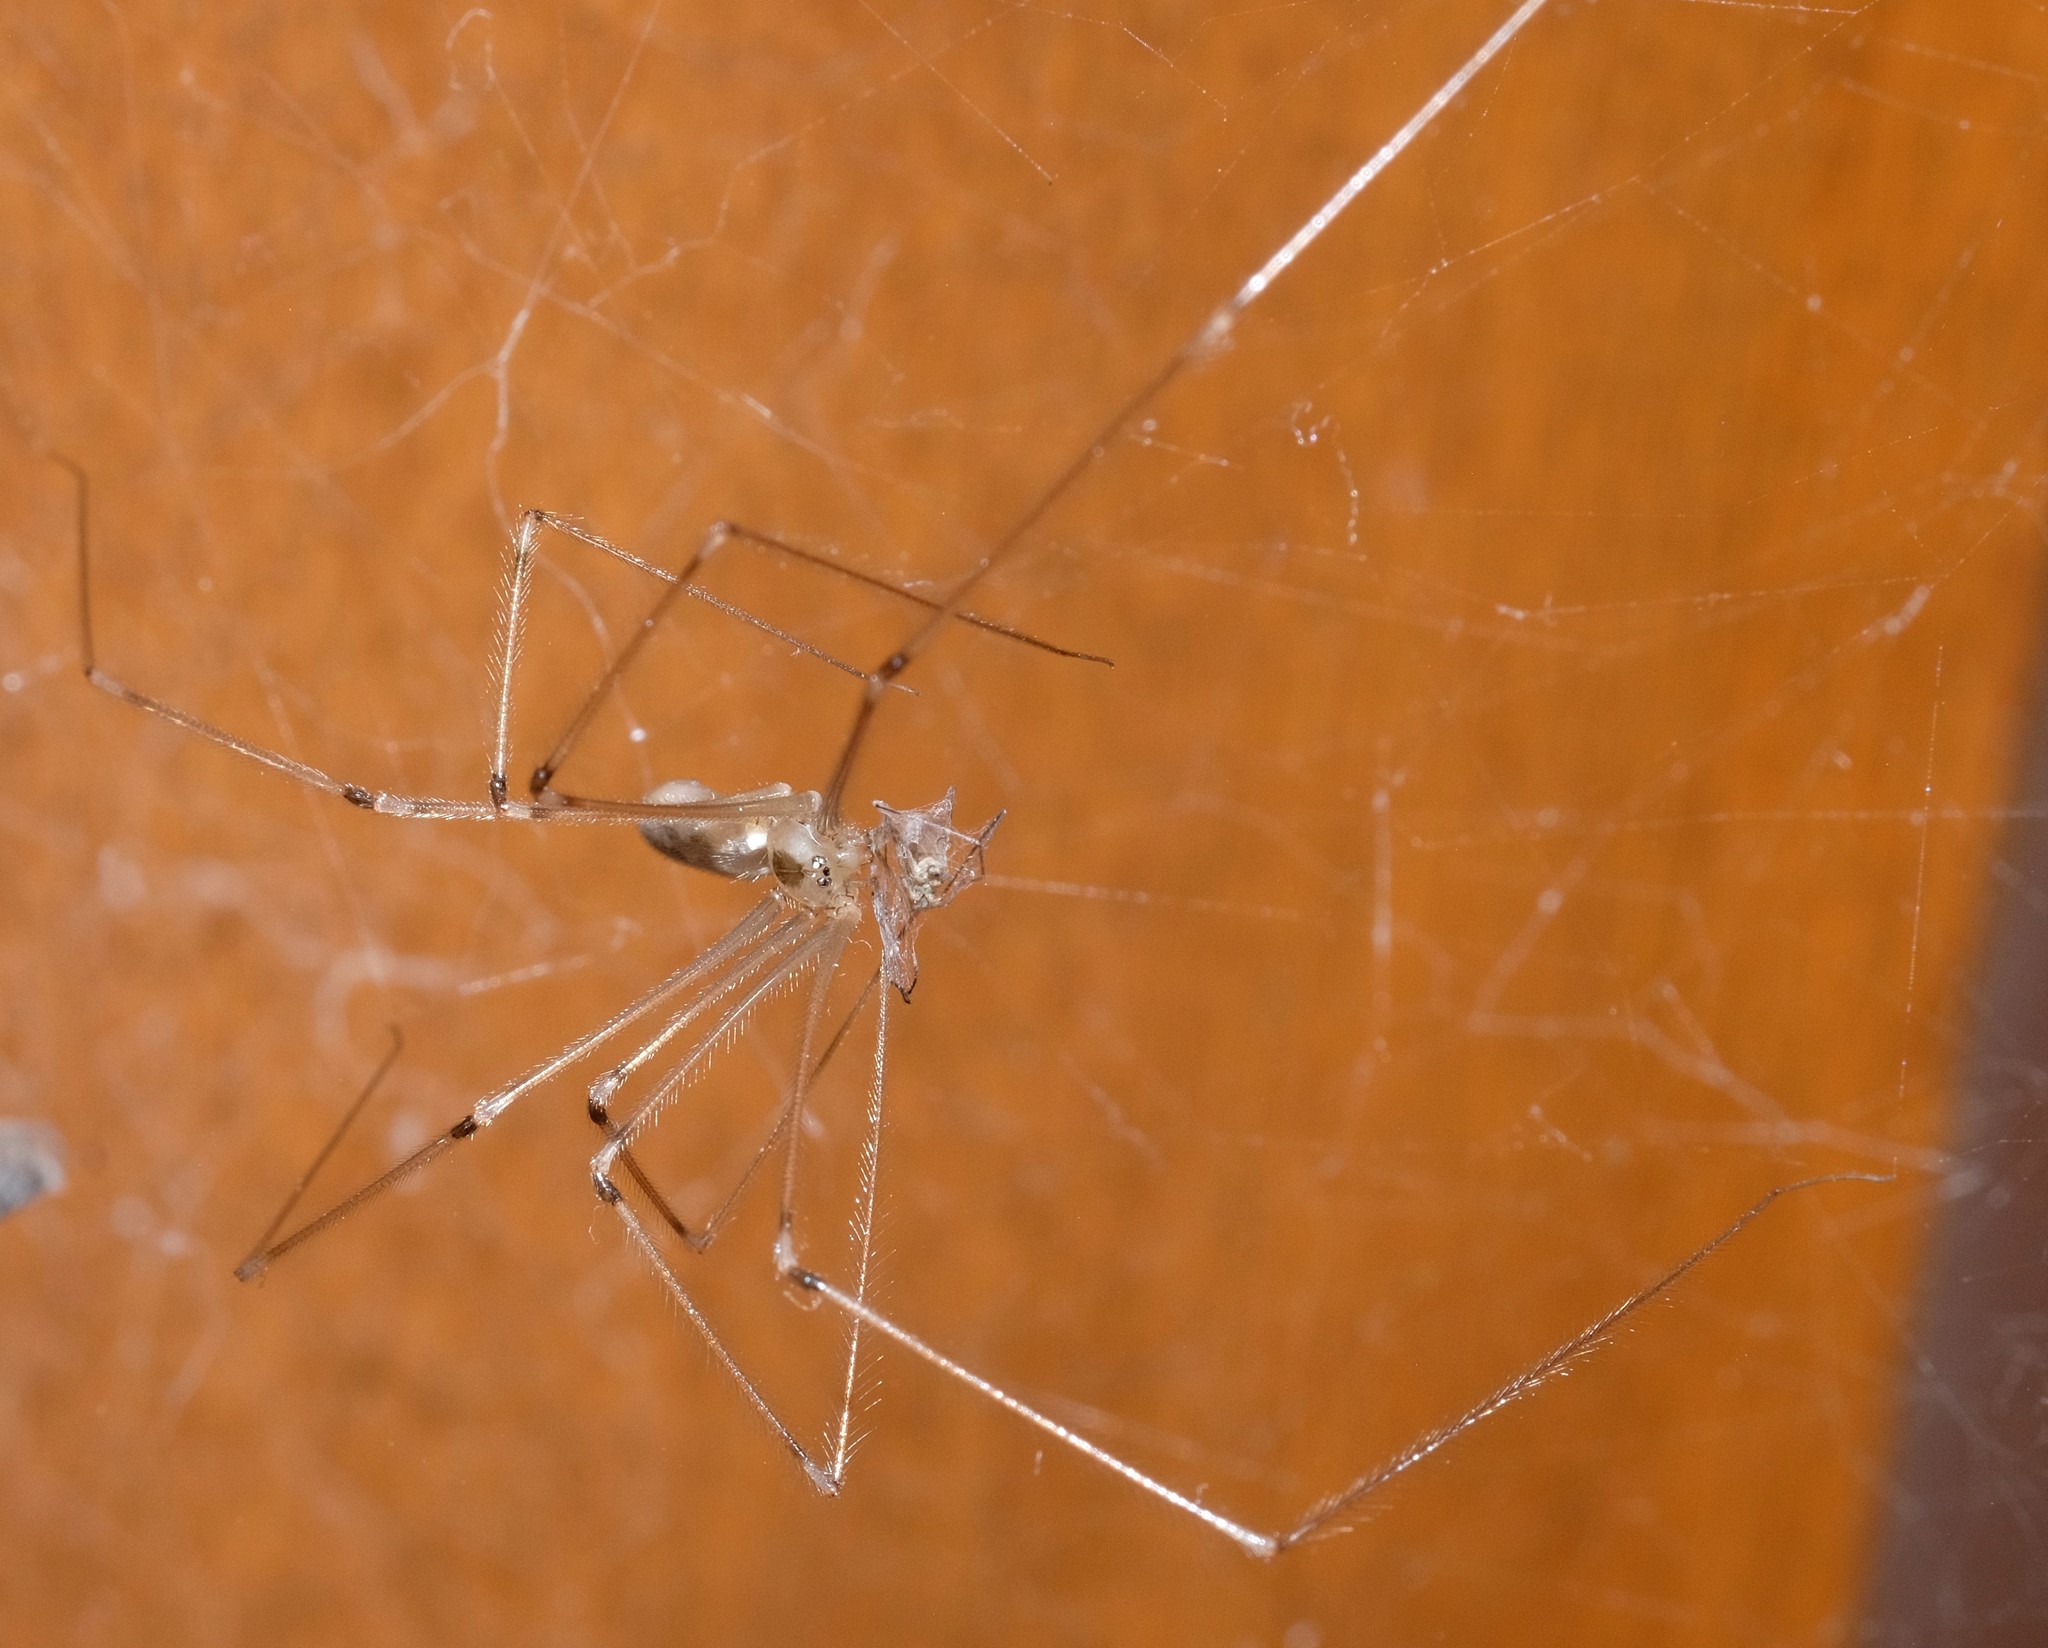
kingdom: Animalia
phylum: Arthropoda
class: Arachnida
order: Araneae
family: Pholcidae
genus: Pholcus
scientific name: Pholcus phalangioides
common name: Longbodied cellar spider
